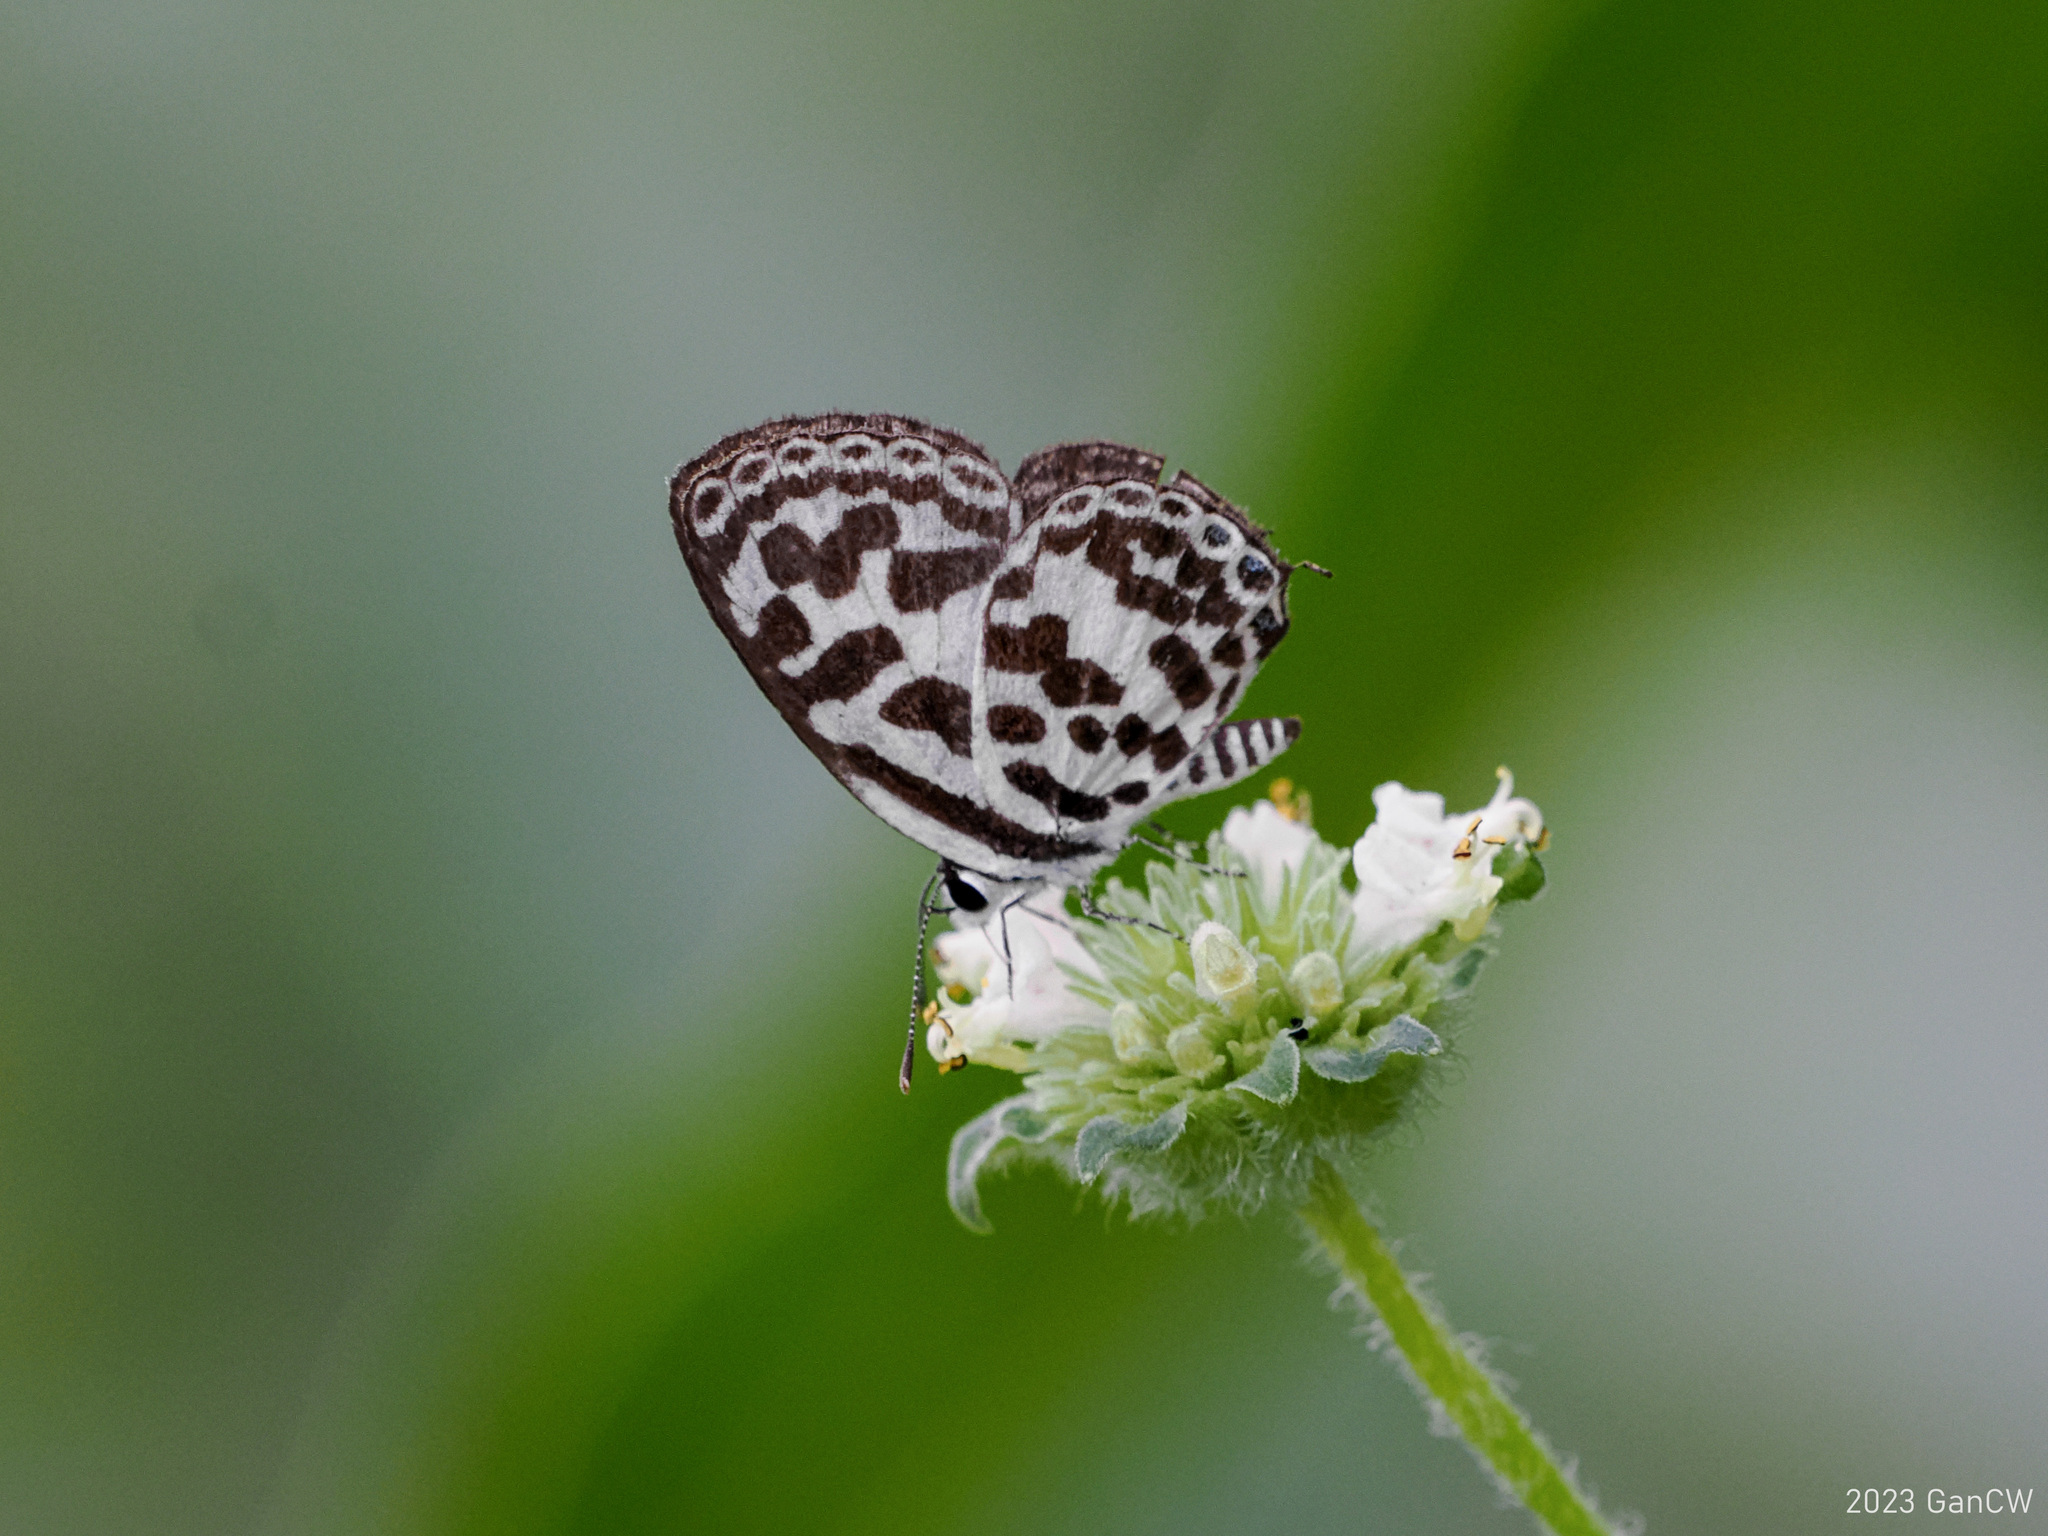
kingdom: Animalia
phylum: Arthropoda
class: Insecta
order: Lepidoptera
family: Lycaenidae
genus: Castalius
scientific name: Castalius rosimon
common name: Common pierrot
